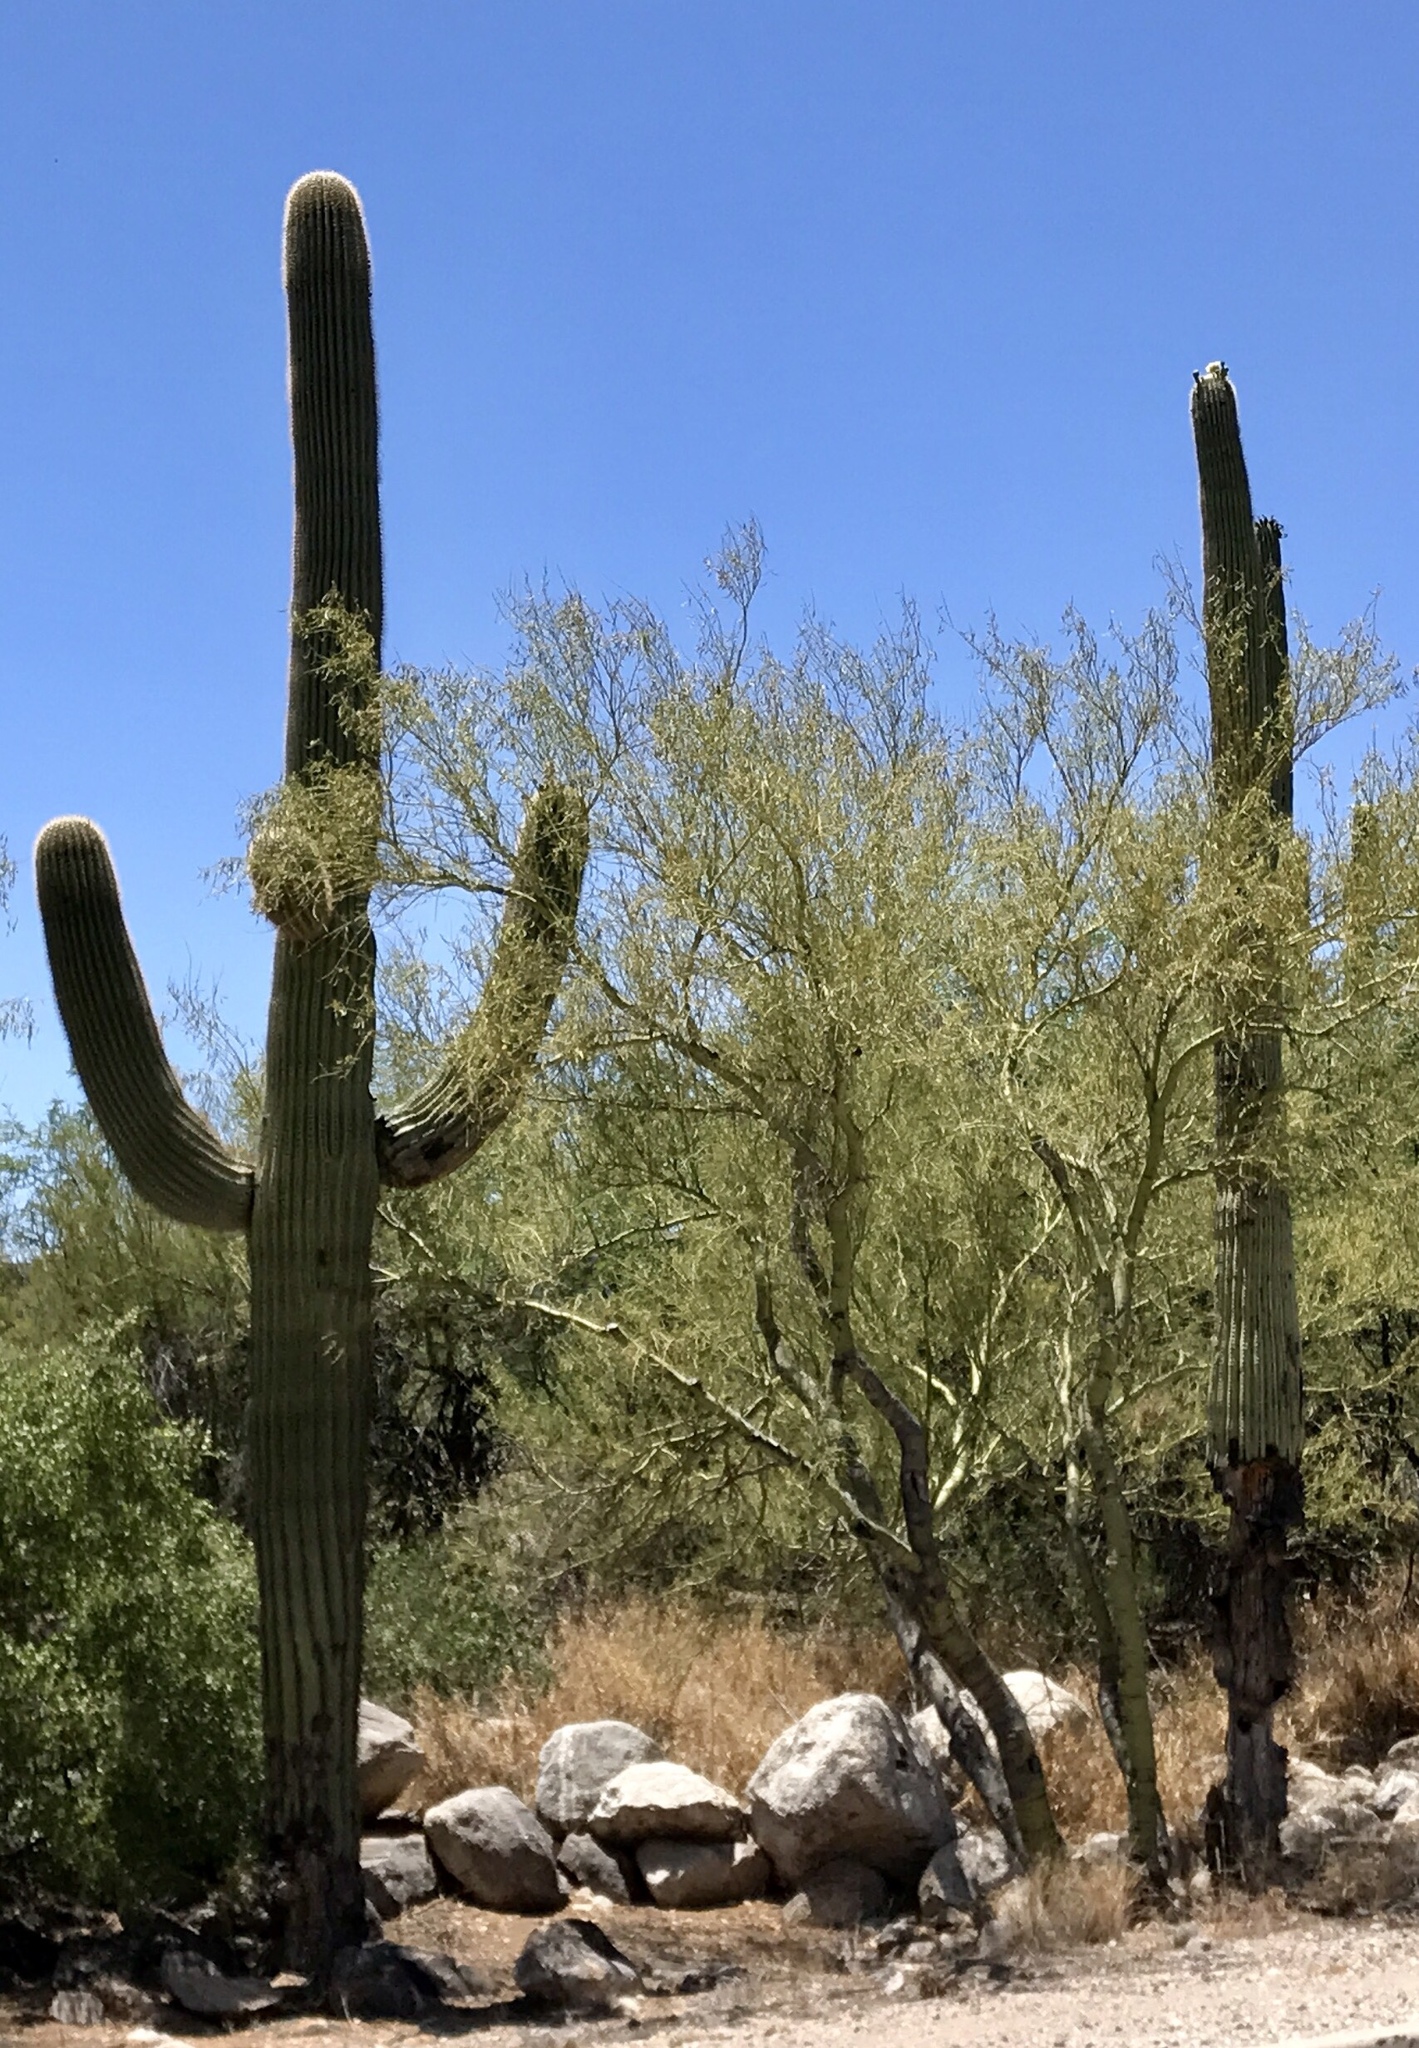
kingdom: Plantae
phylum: Tracheophyta
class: Magnoliopsida
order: Caryophyllales
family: Cactaceae
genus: Carnegiea
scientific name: Carnegiea gigantea
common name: Saguaro
